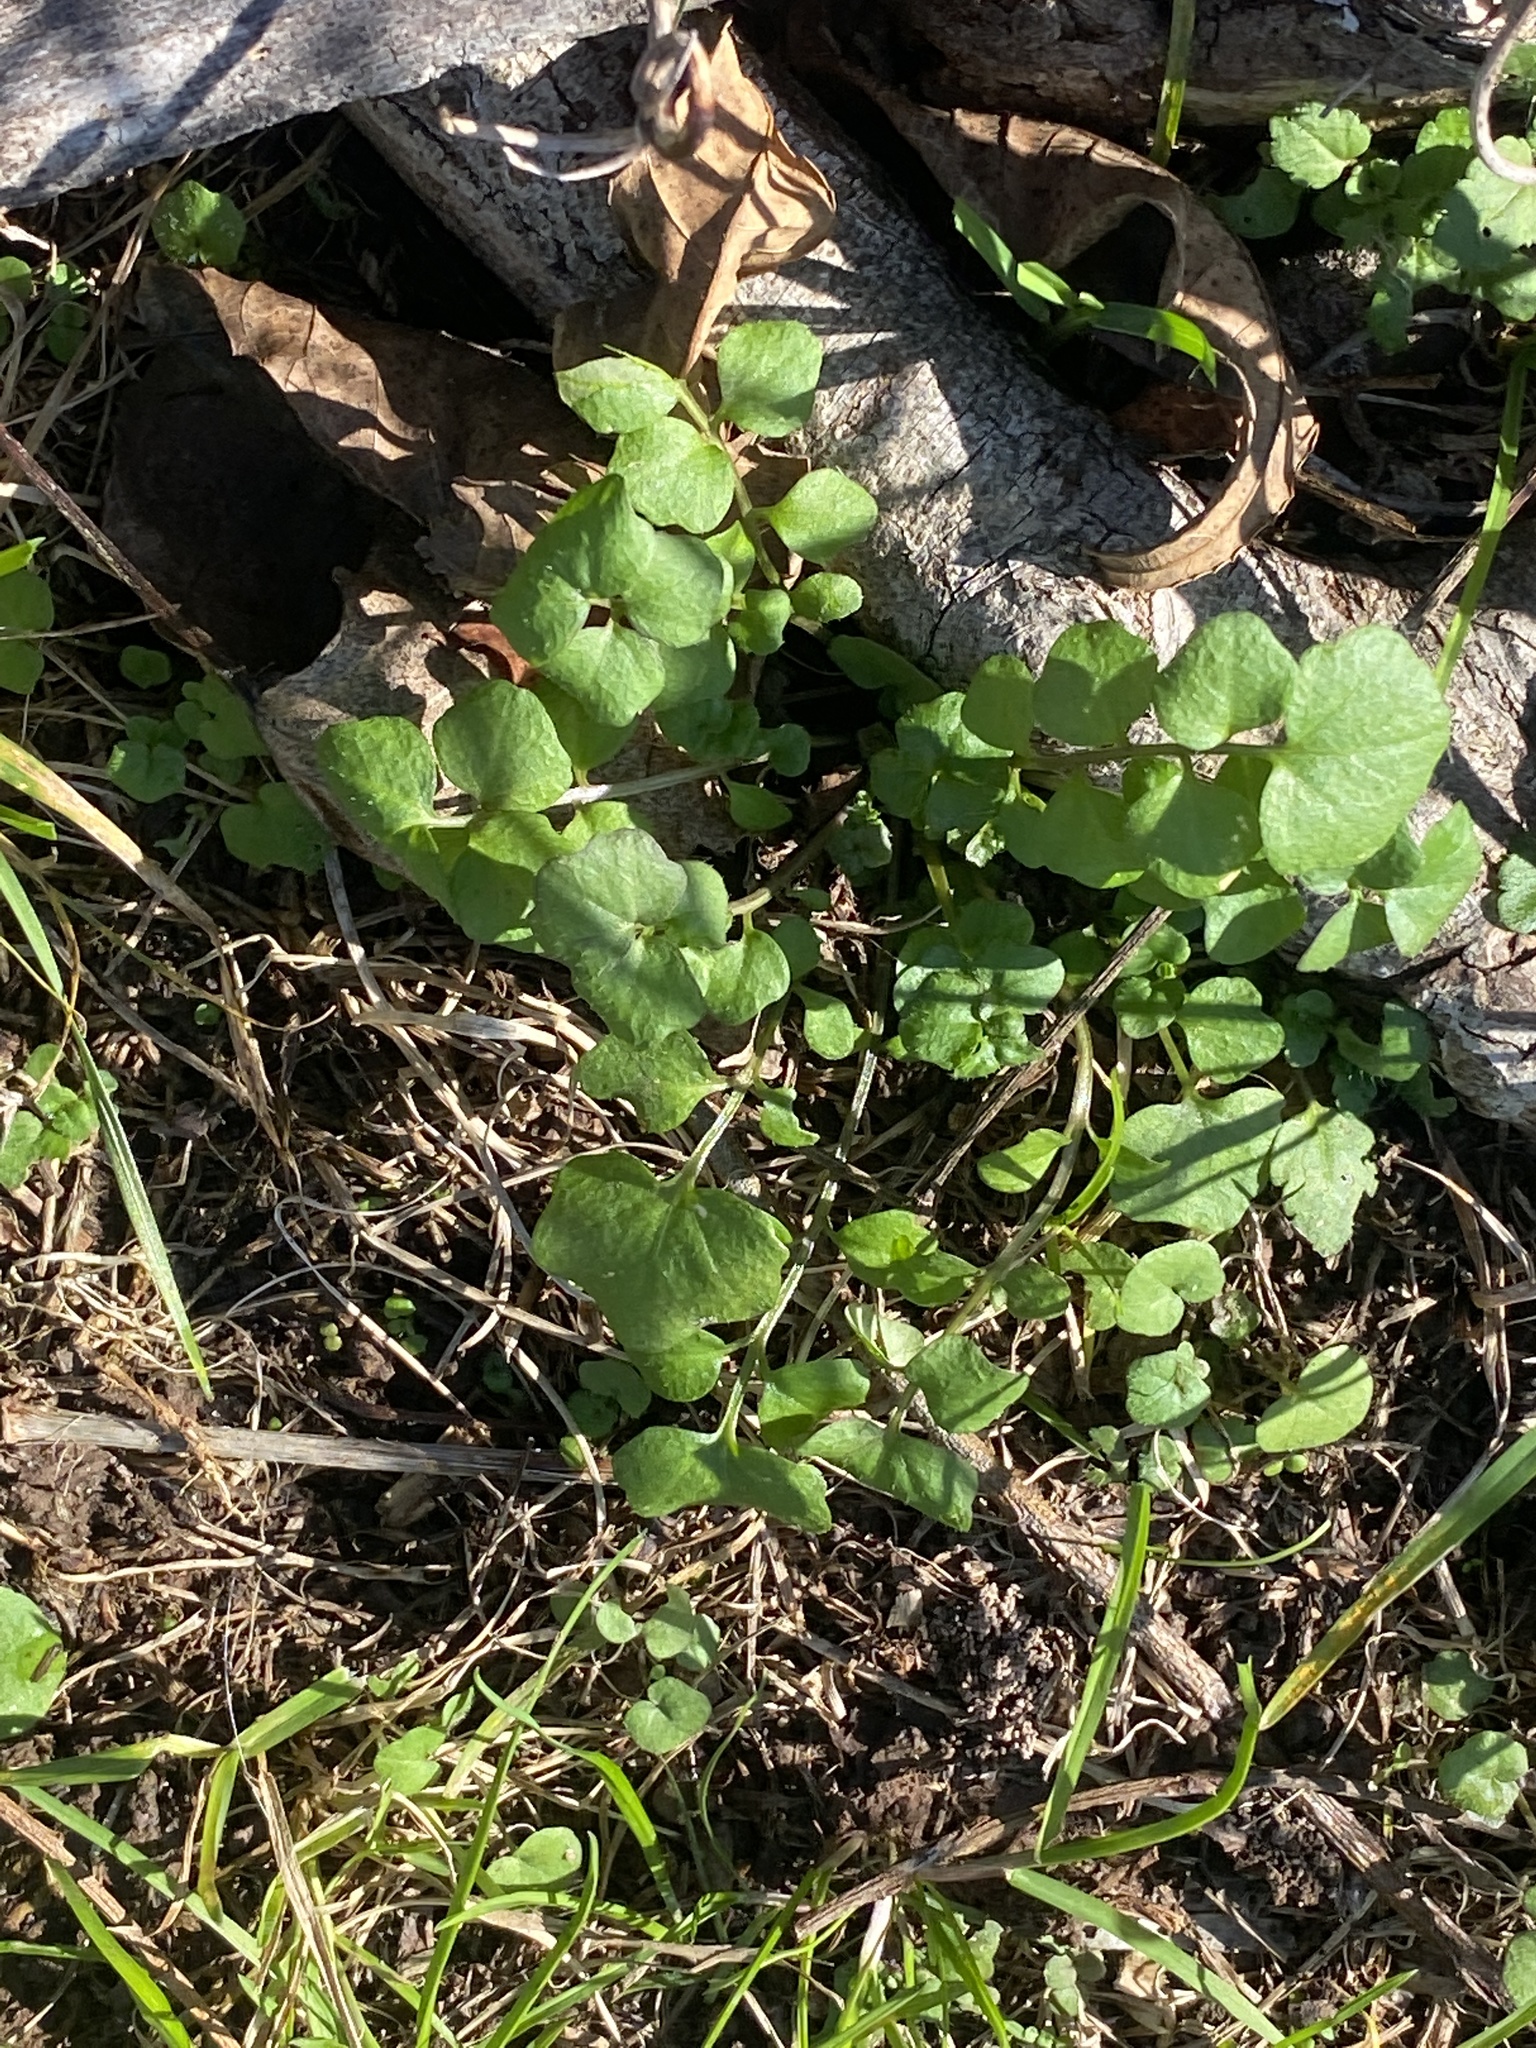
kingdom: Plantae
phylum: Tracheophyta
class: Magnoliopsida
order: Brassicales
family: Brassicaceae
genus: Cardamine
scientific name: Cardamine hirsuta
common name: Hairy bittercress
